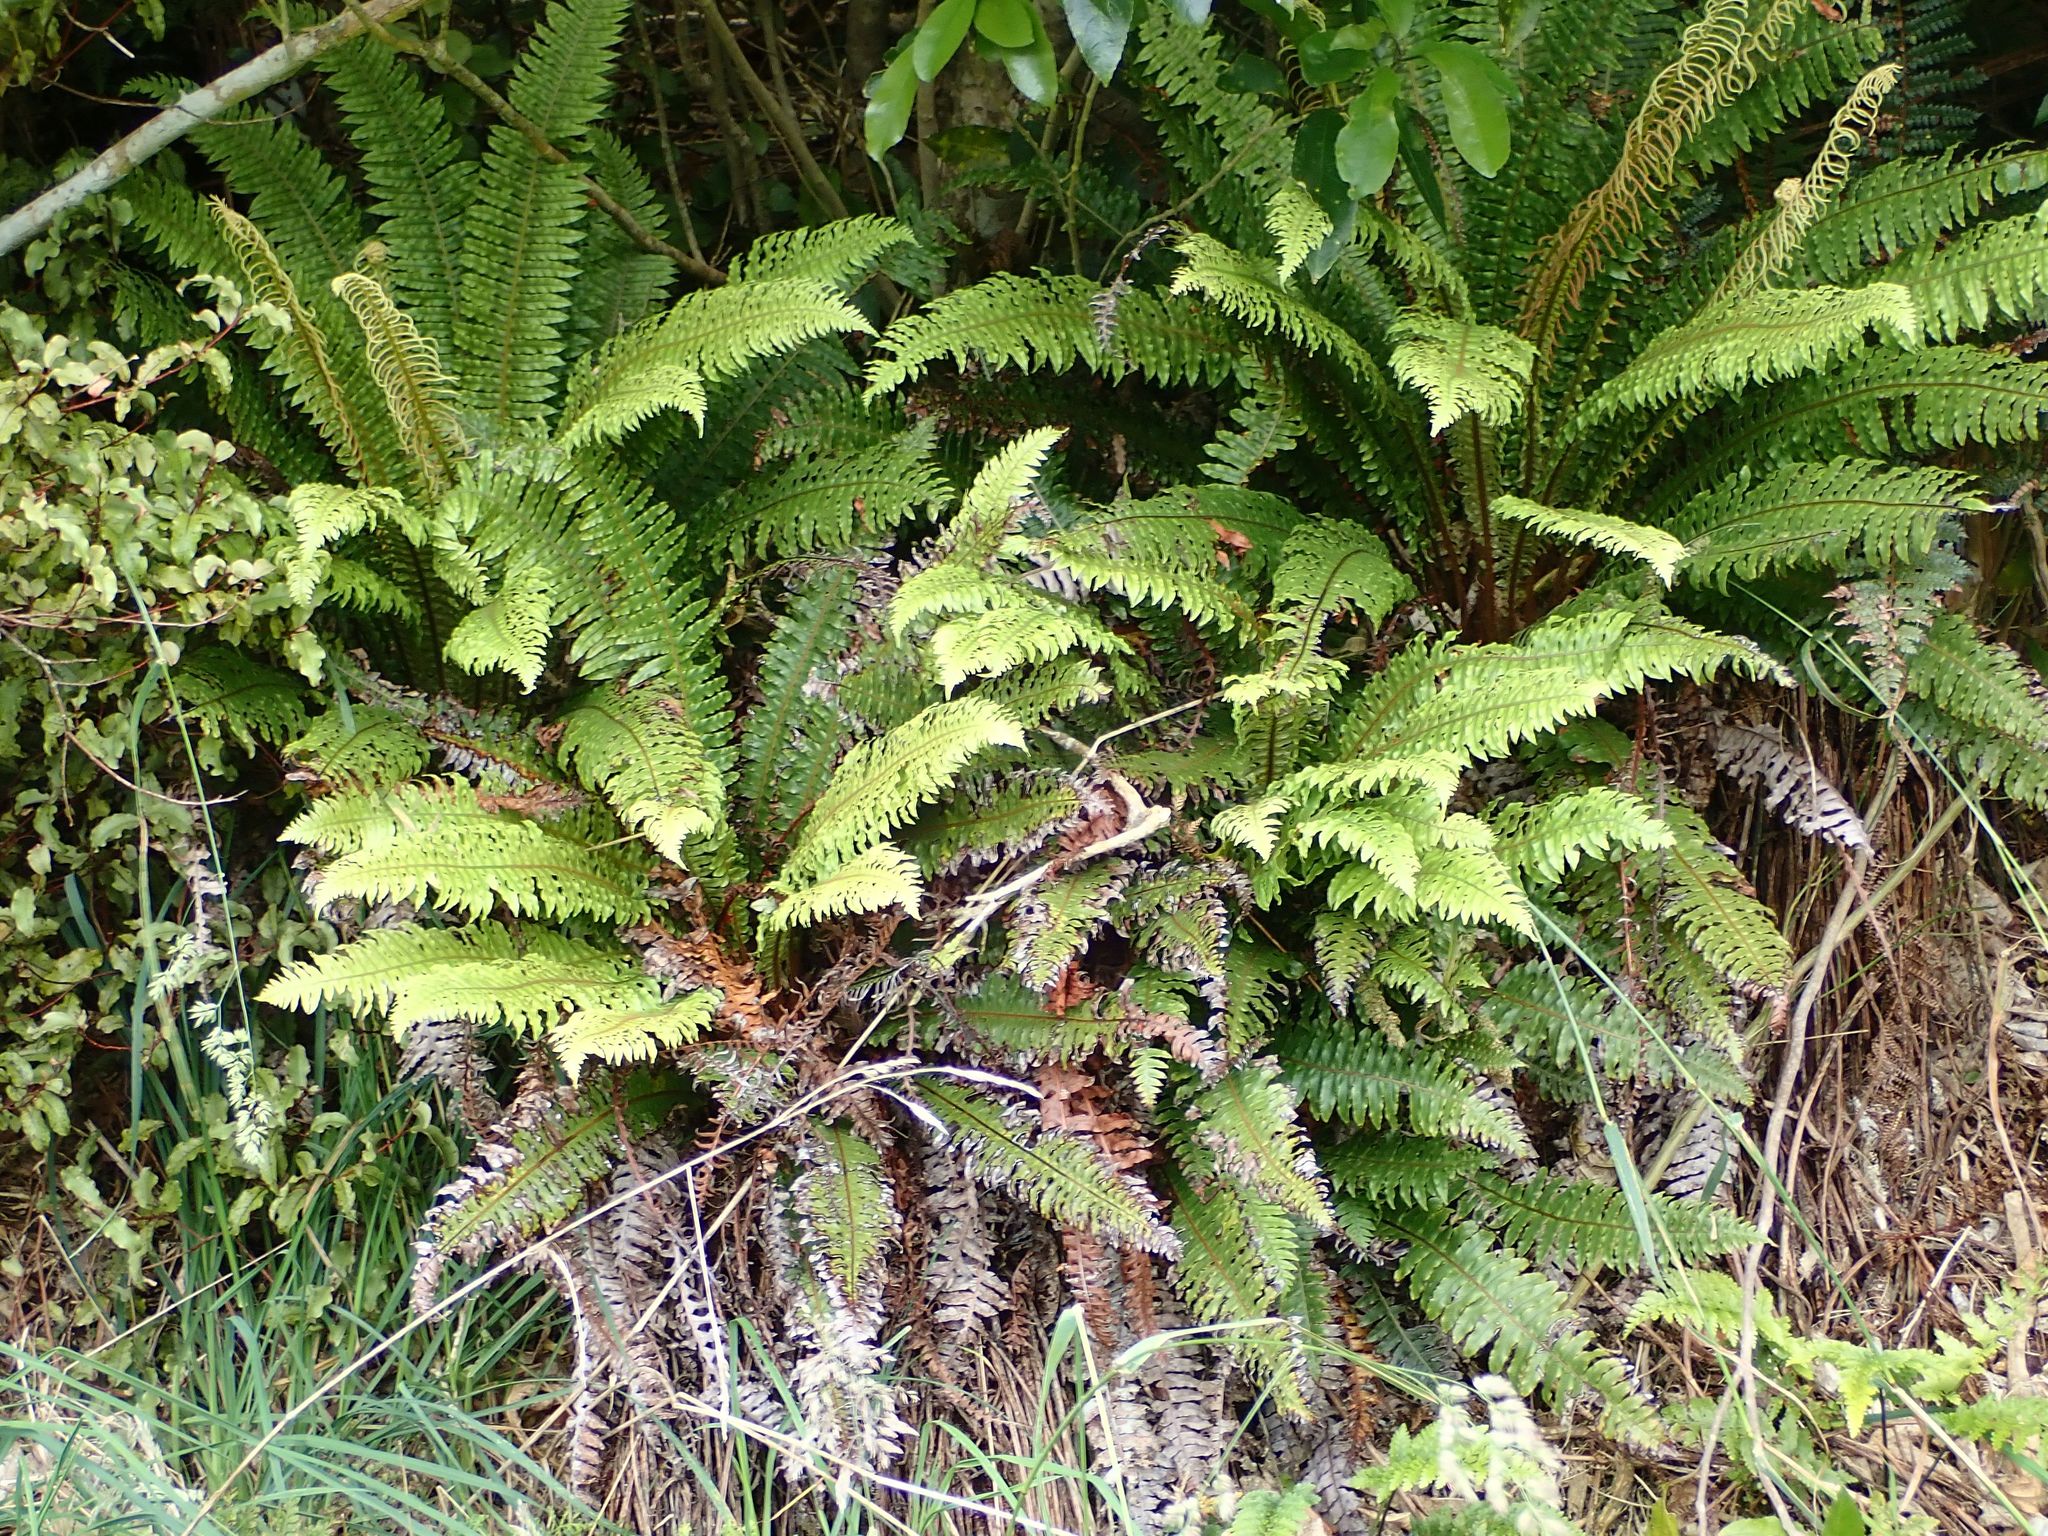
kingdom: Plantae
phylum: Tracheophyta
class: Polypodiopsida
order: Polypodiales
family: Blechnaceae
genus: Lomaria
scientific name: Lomaria discolor
